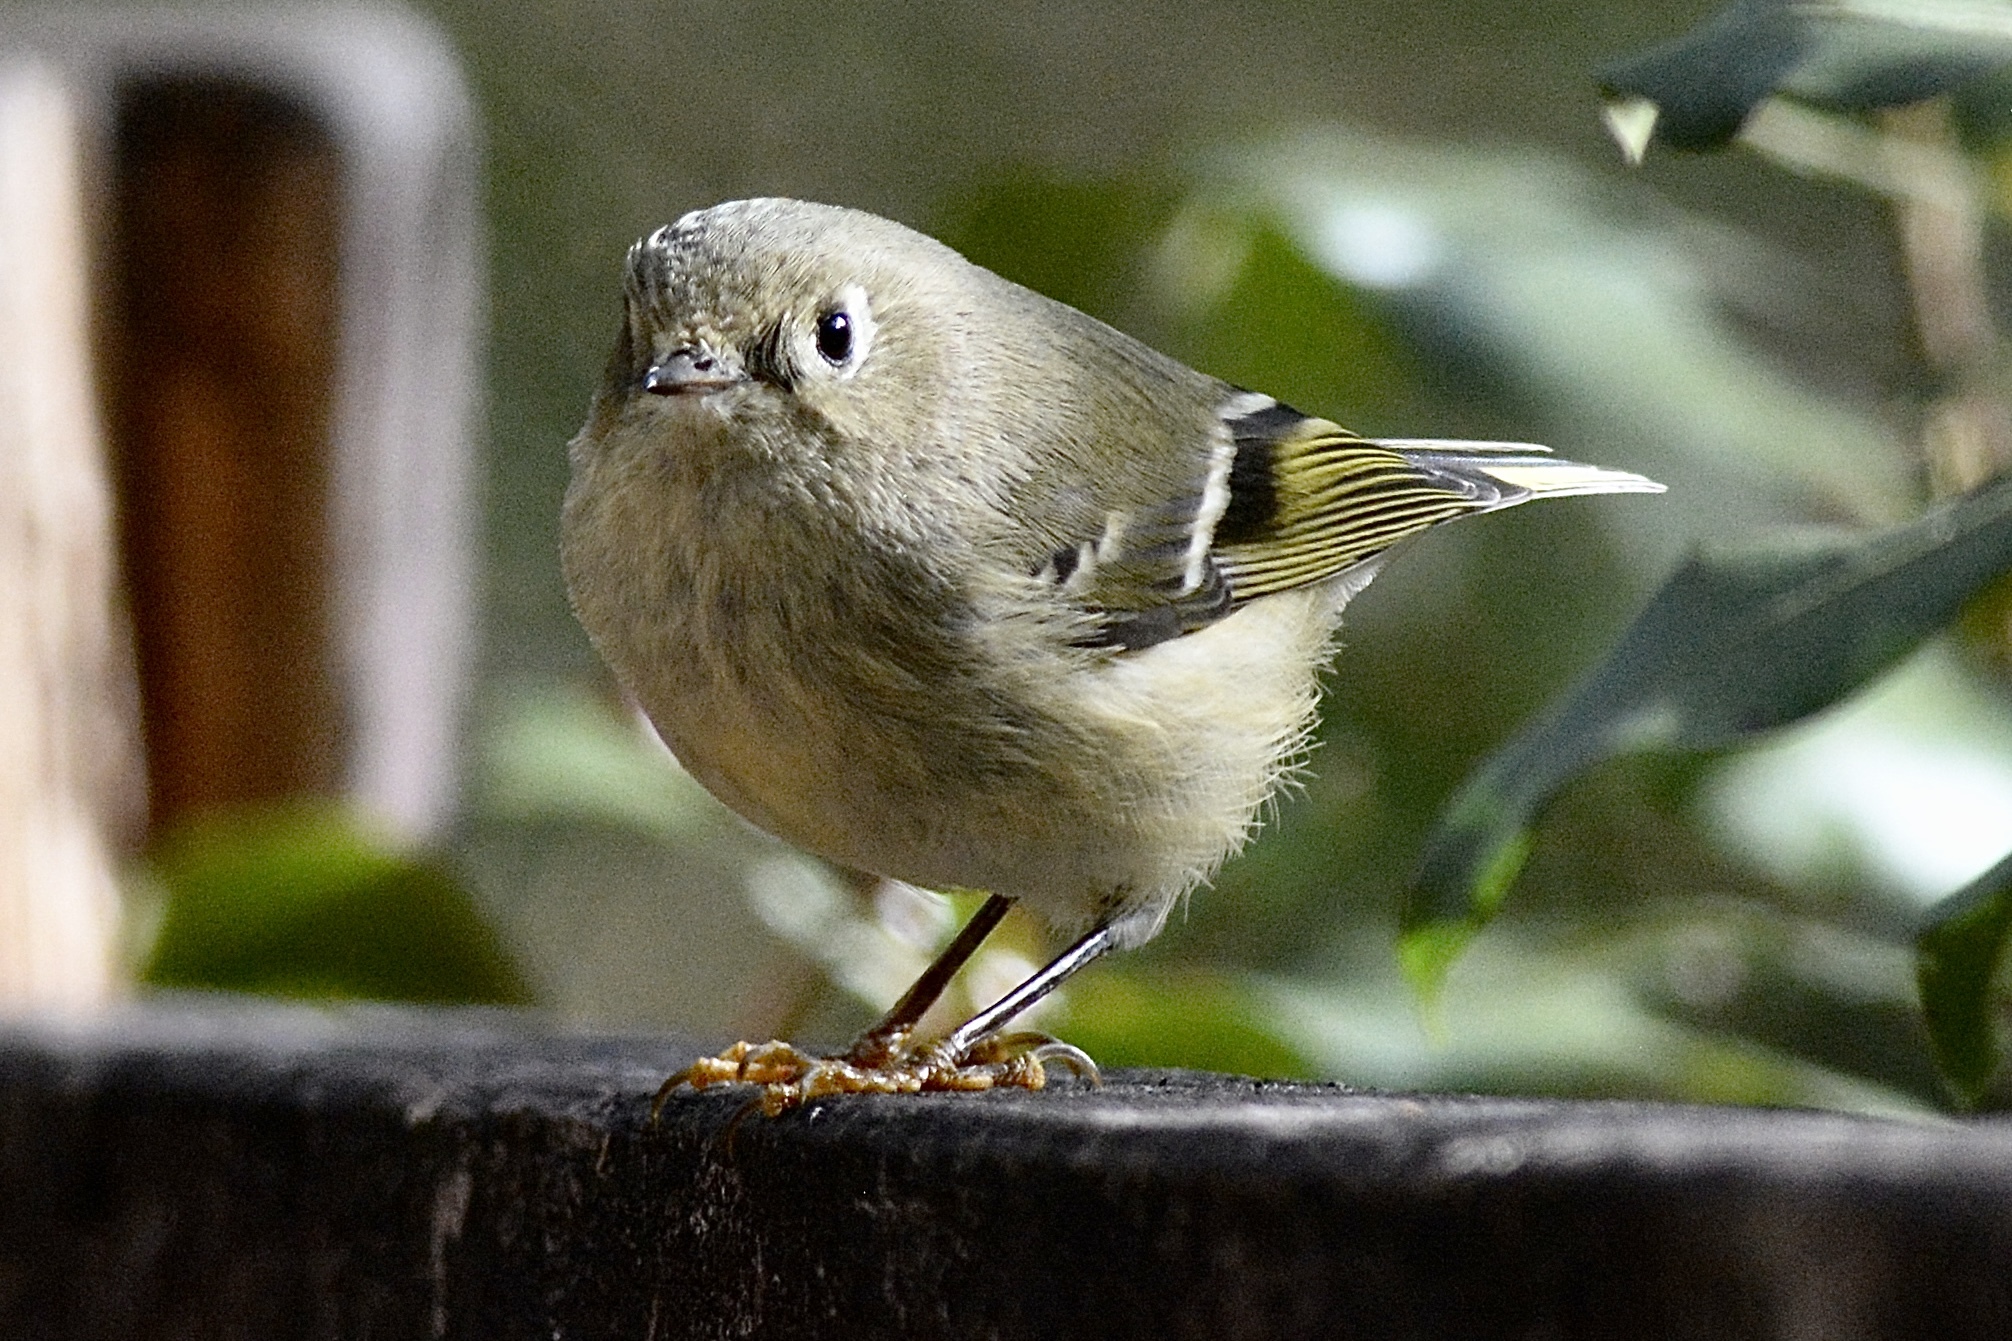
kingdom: Animalia
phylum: Chordata
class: Aves
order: Passeriformes
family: Regulidae
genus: Regulus
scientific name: Regulus calendula
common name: Ruby-crowned kinglet
